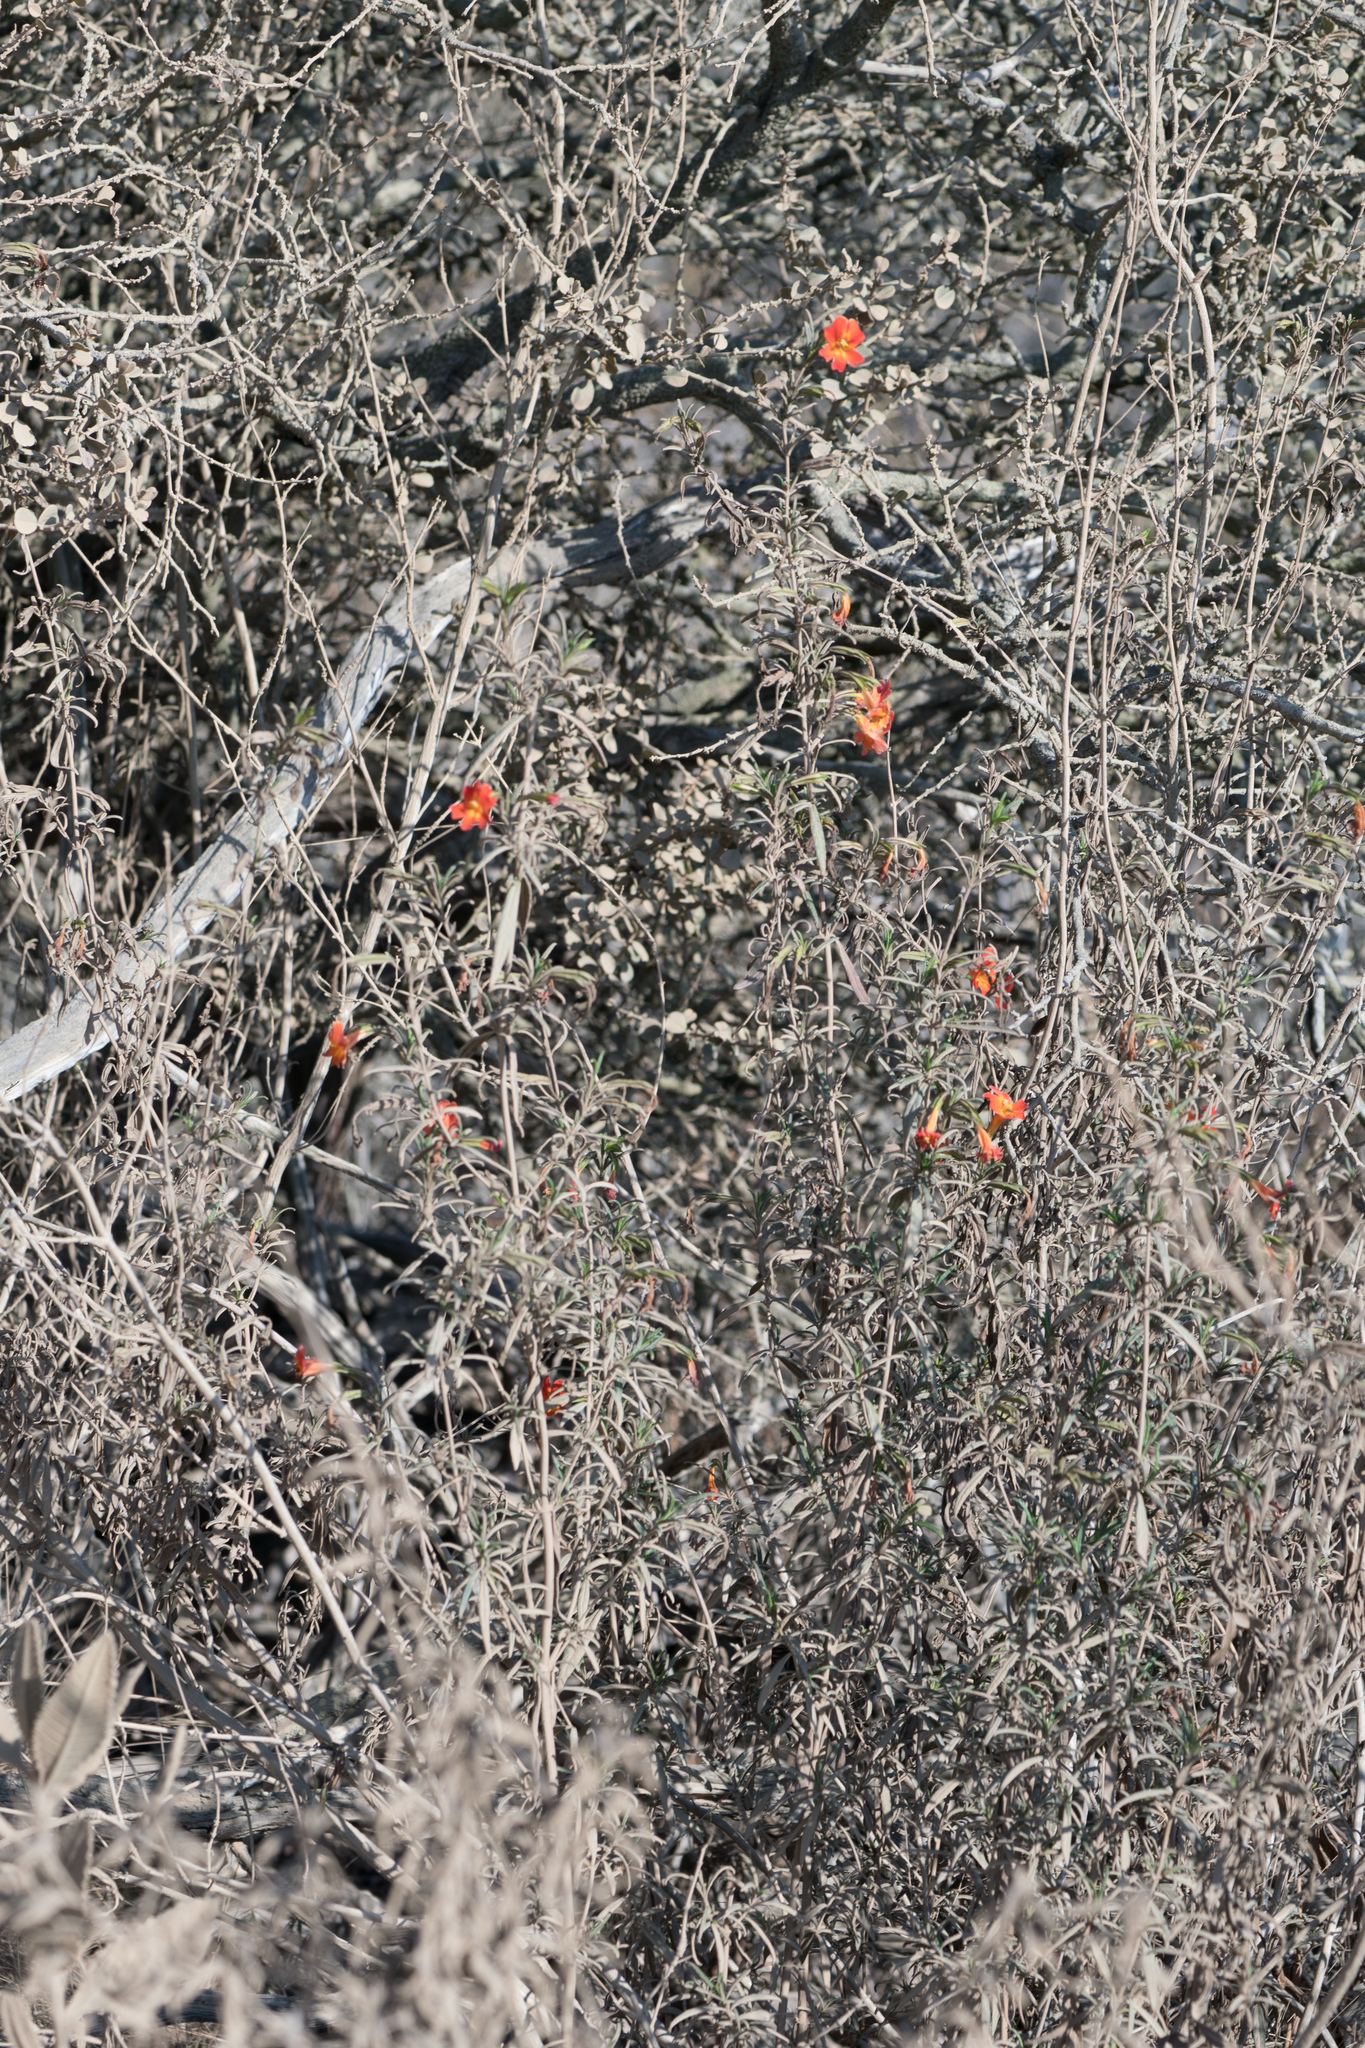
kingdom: Plantae
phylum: Tracheophyta
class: Magnoliopsida
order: Lamiales
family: Phrymaceae
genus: Diplacus
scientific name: Diplacus puniceus
